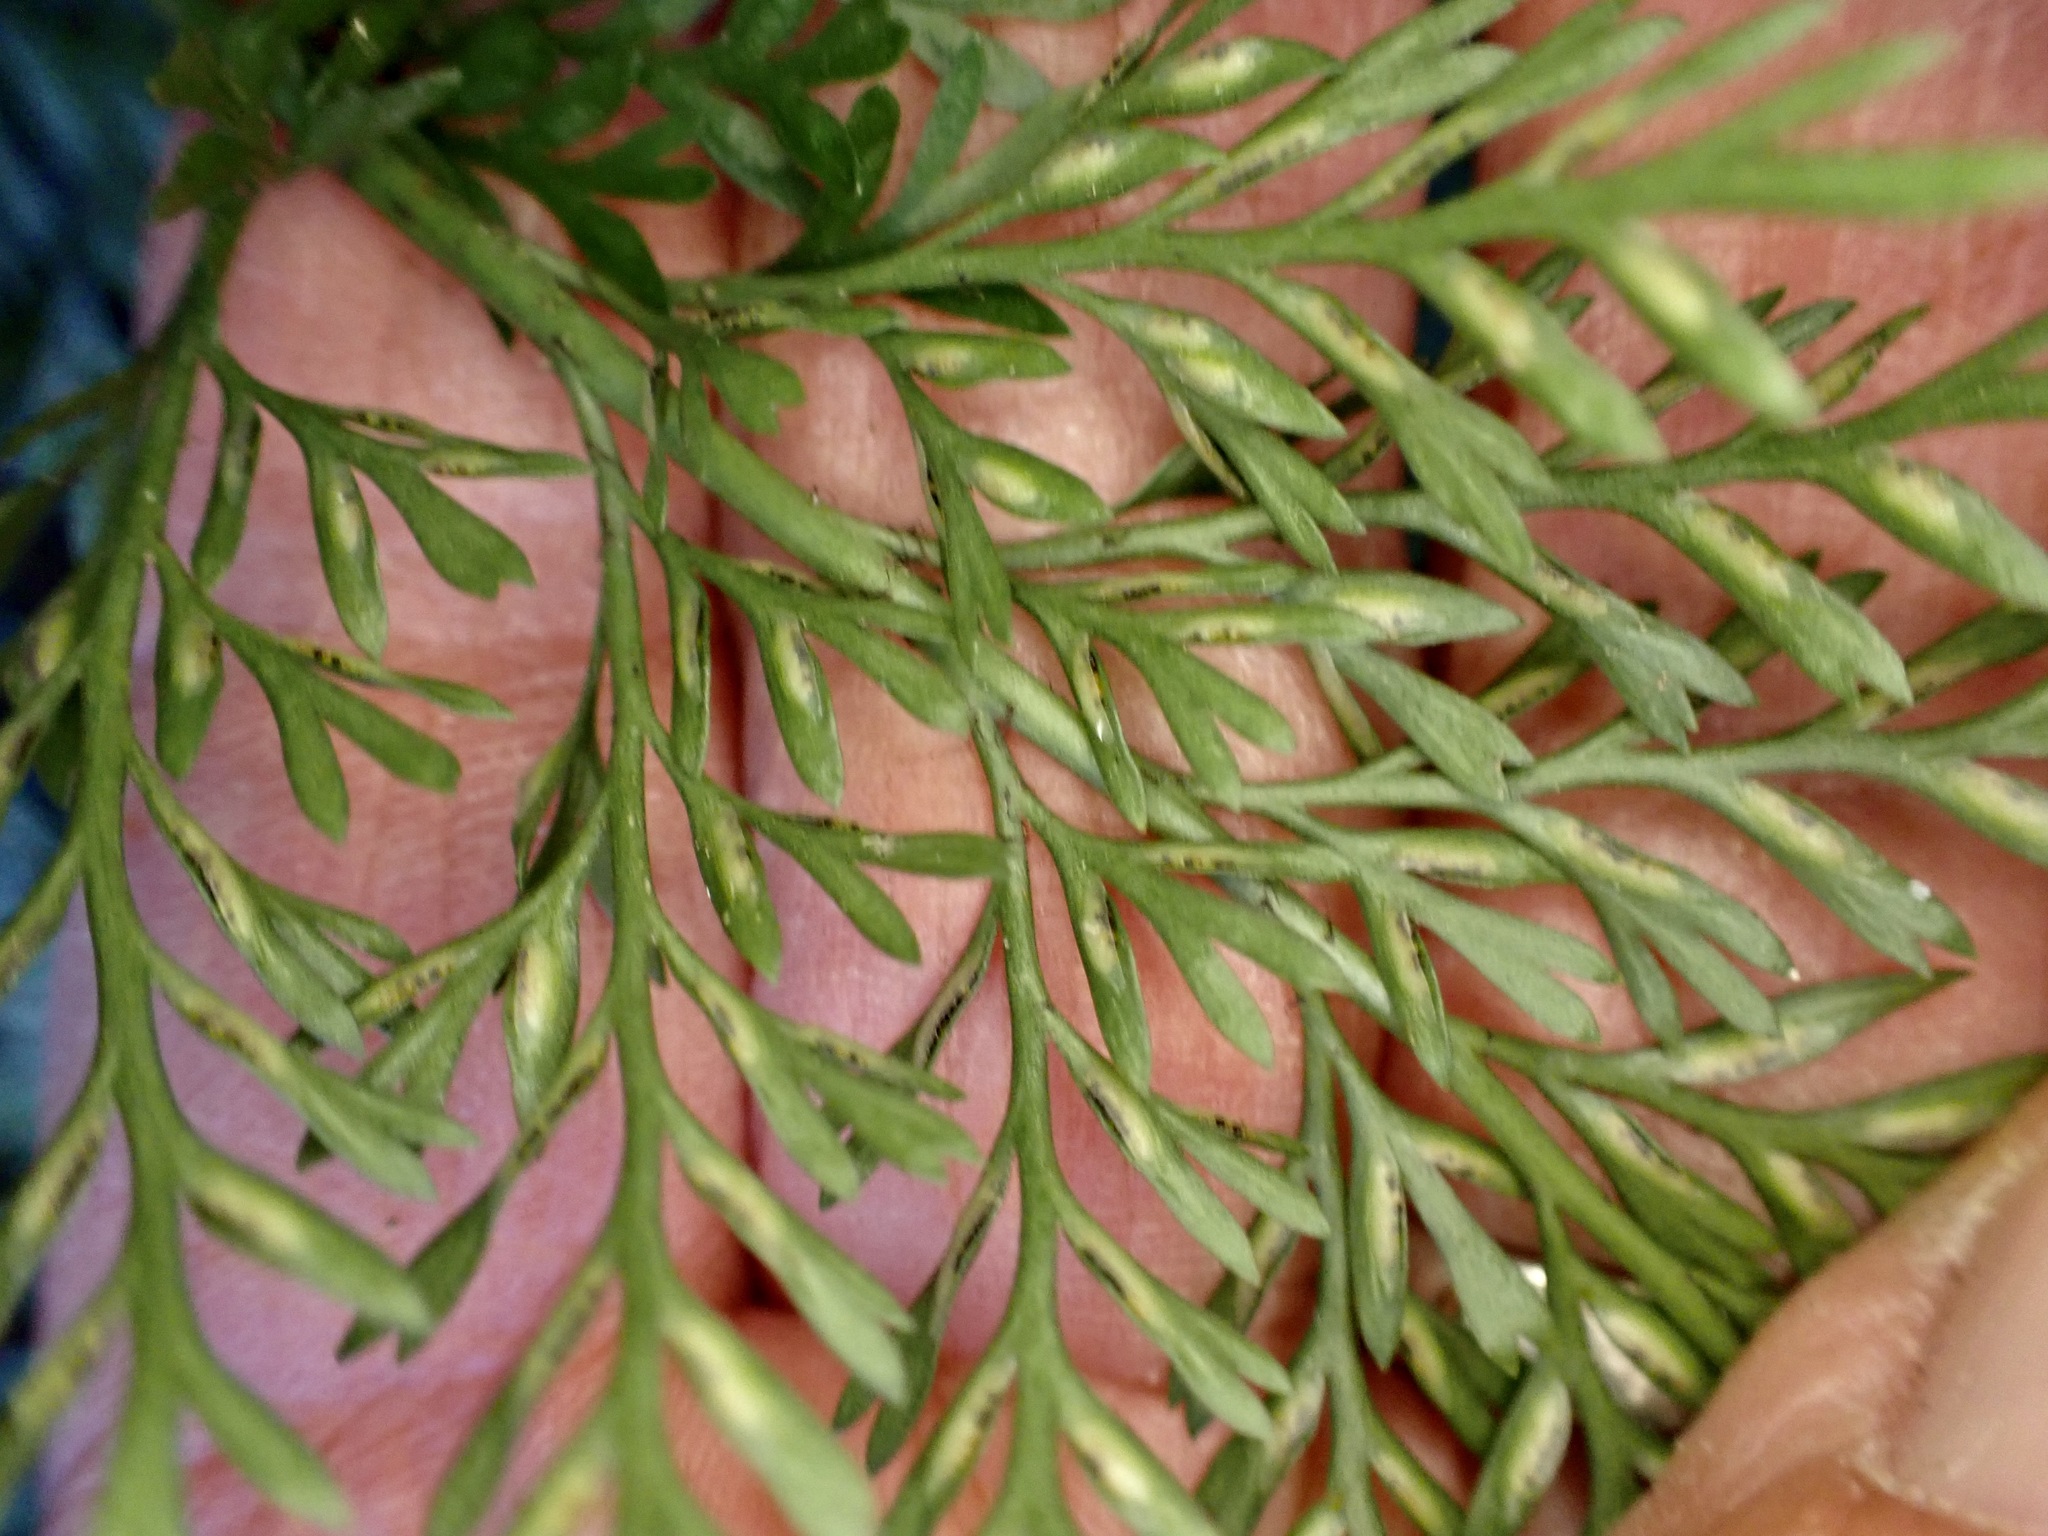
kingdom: Plantae
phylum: Tracheophyta
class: Polypodiopsida
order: Polypodiales
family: Aspleniaceae
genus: Asplenium
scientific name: Asplenium richardii
